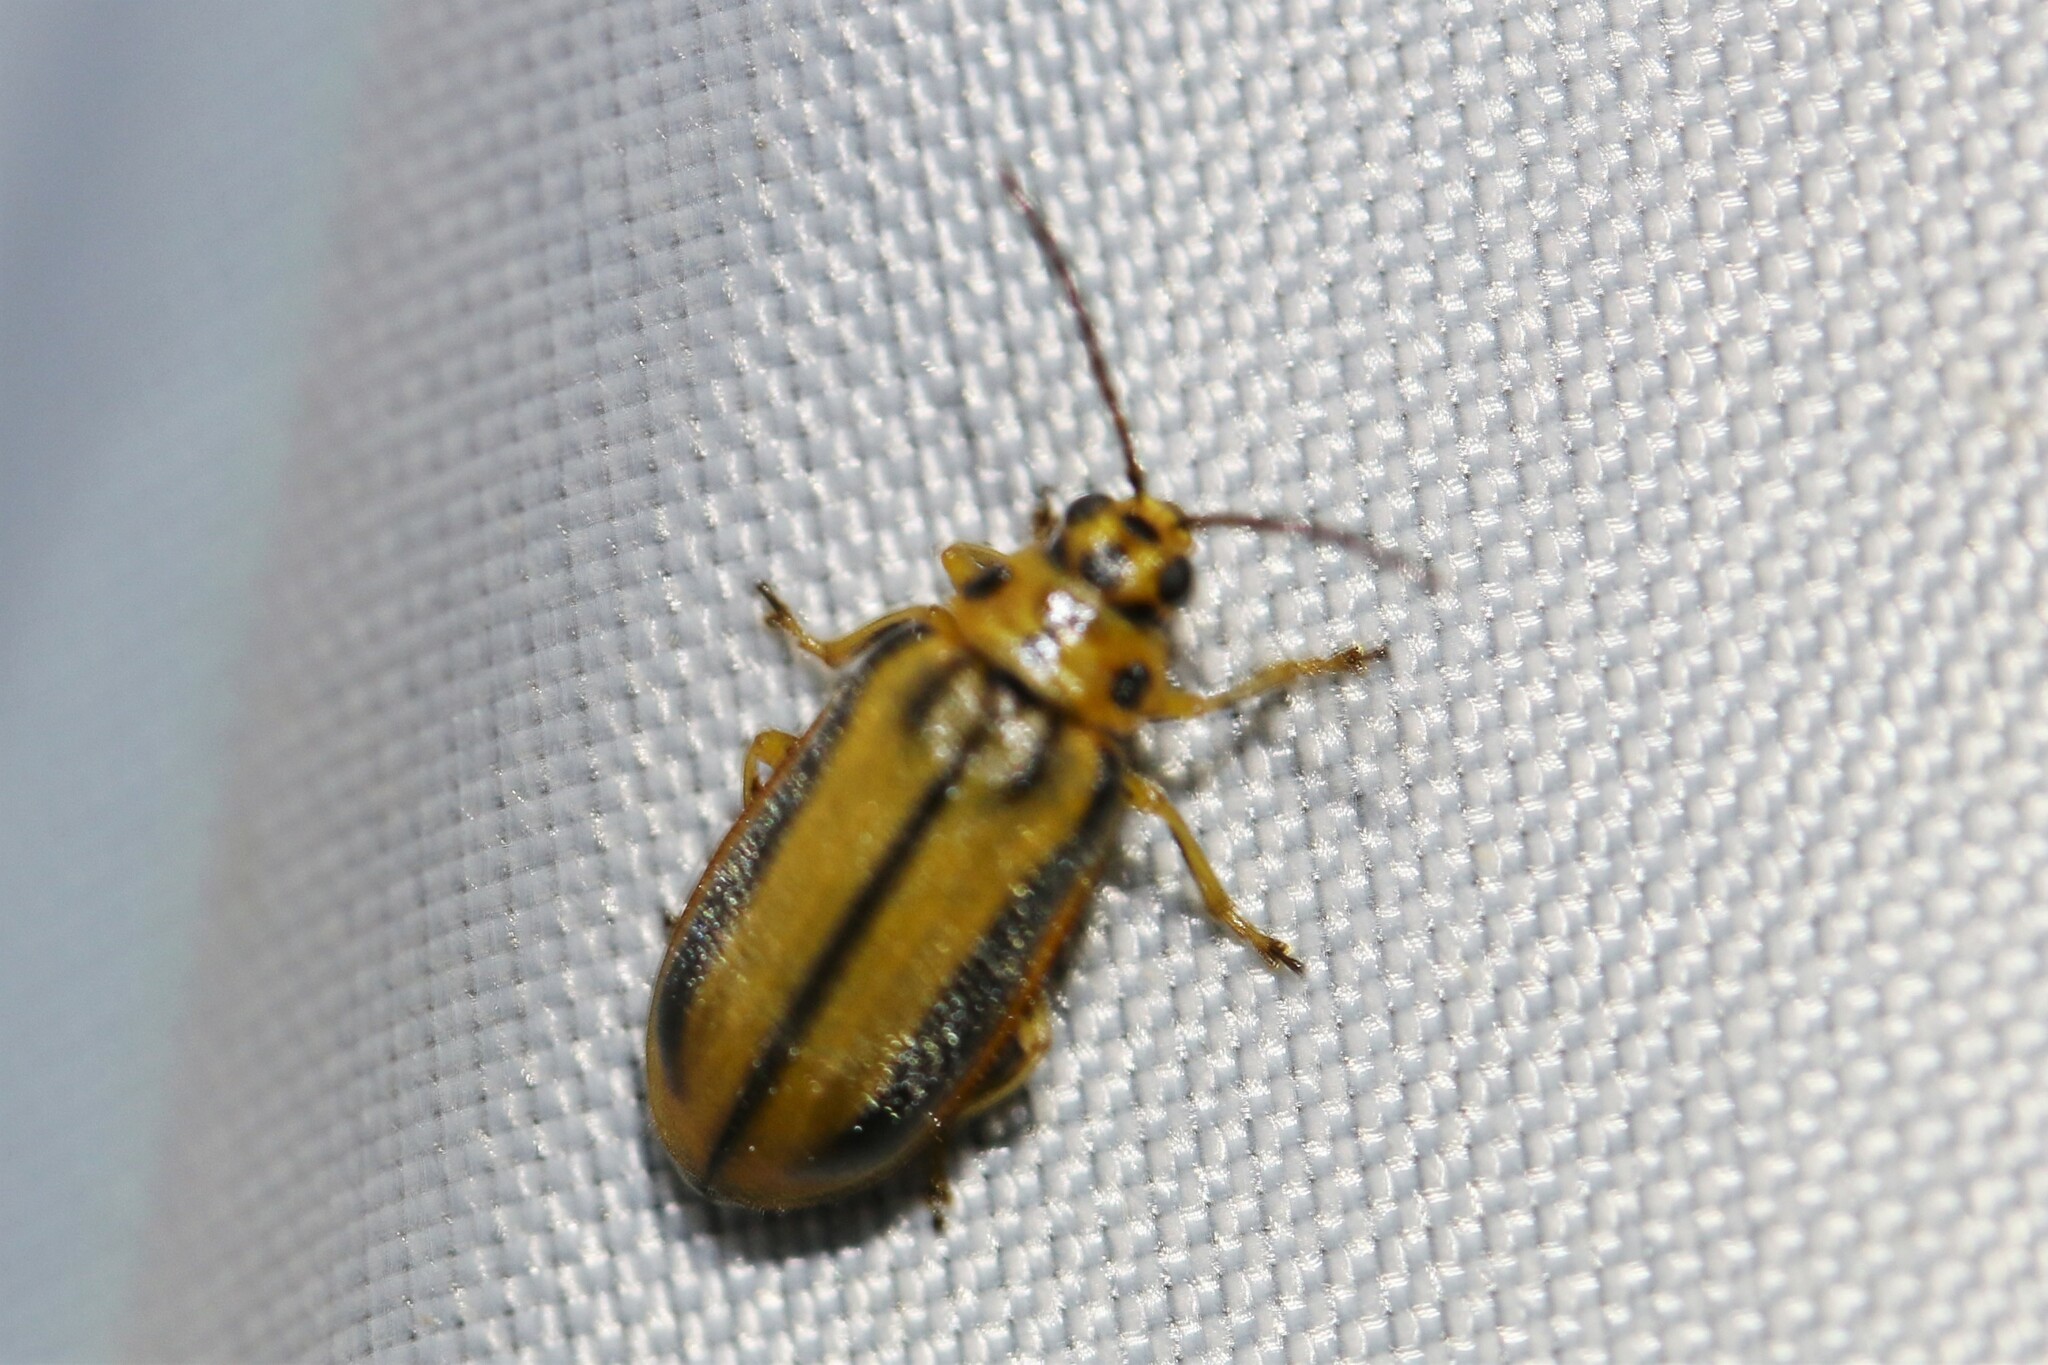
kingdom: Animalia
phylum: Arthropoda
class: Insecta
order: Coleoptera
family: Chrysomelidae
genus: Xanthogaleruca
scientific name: Xanthogaleruca luteola
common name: Elm leaf beetle
